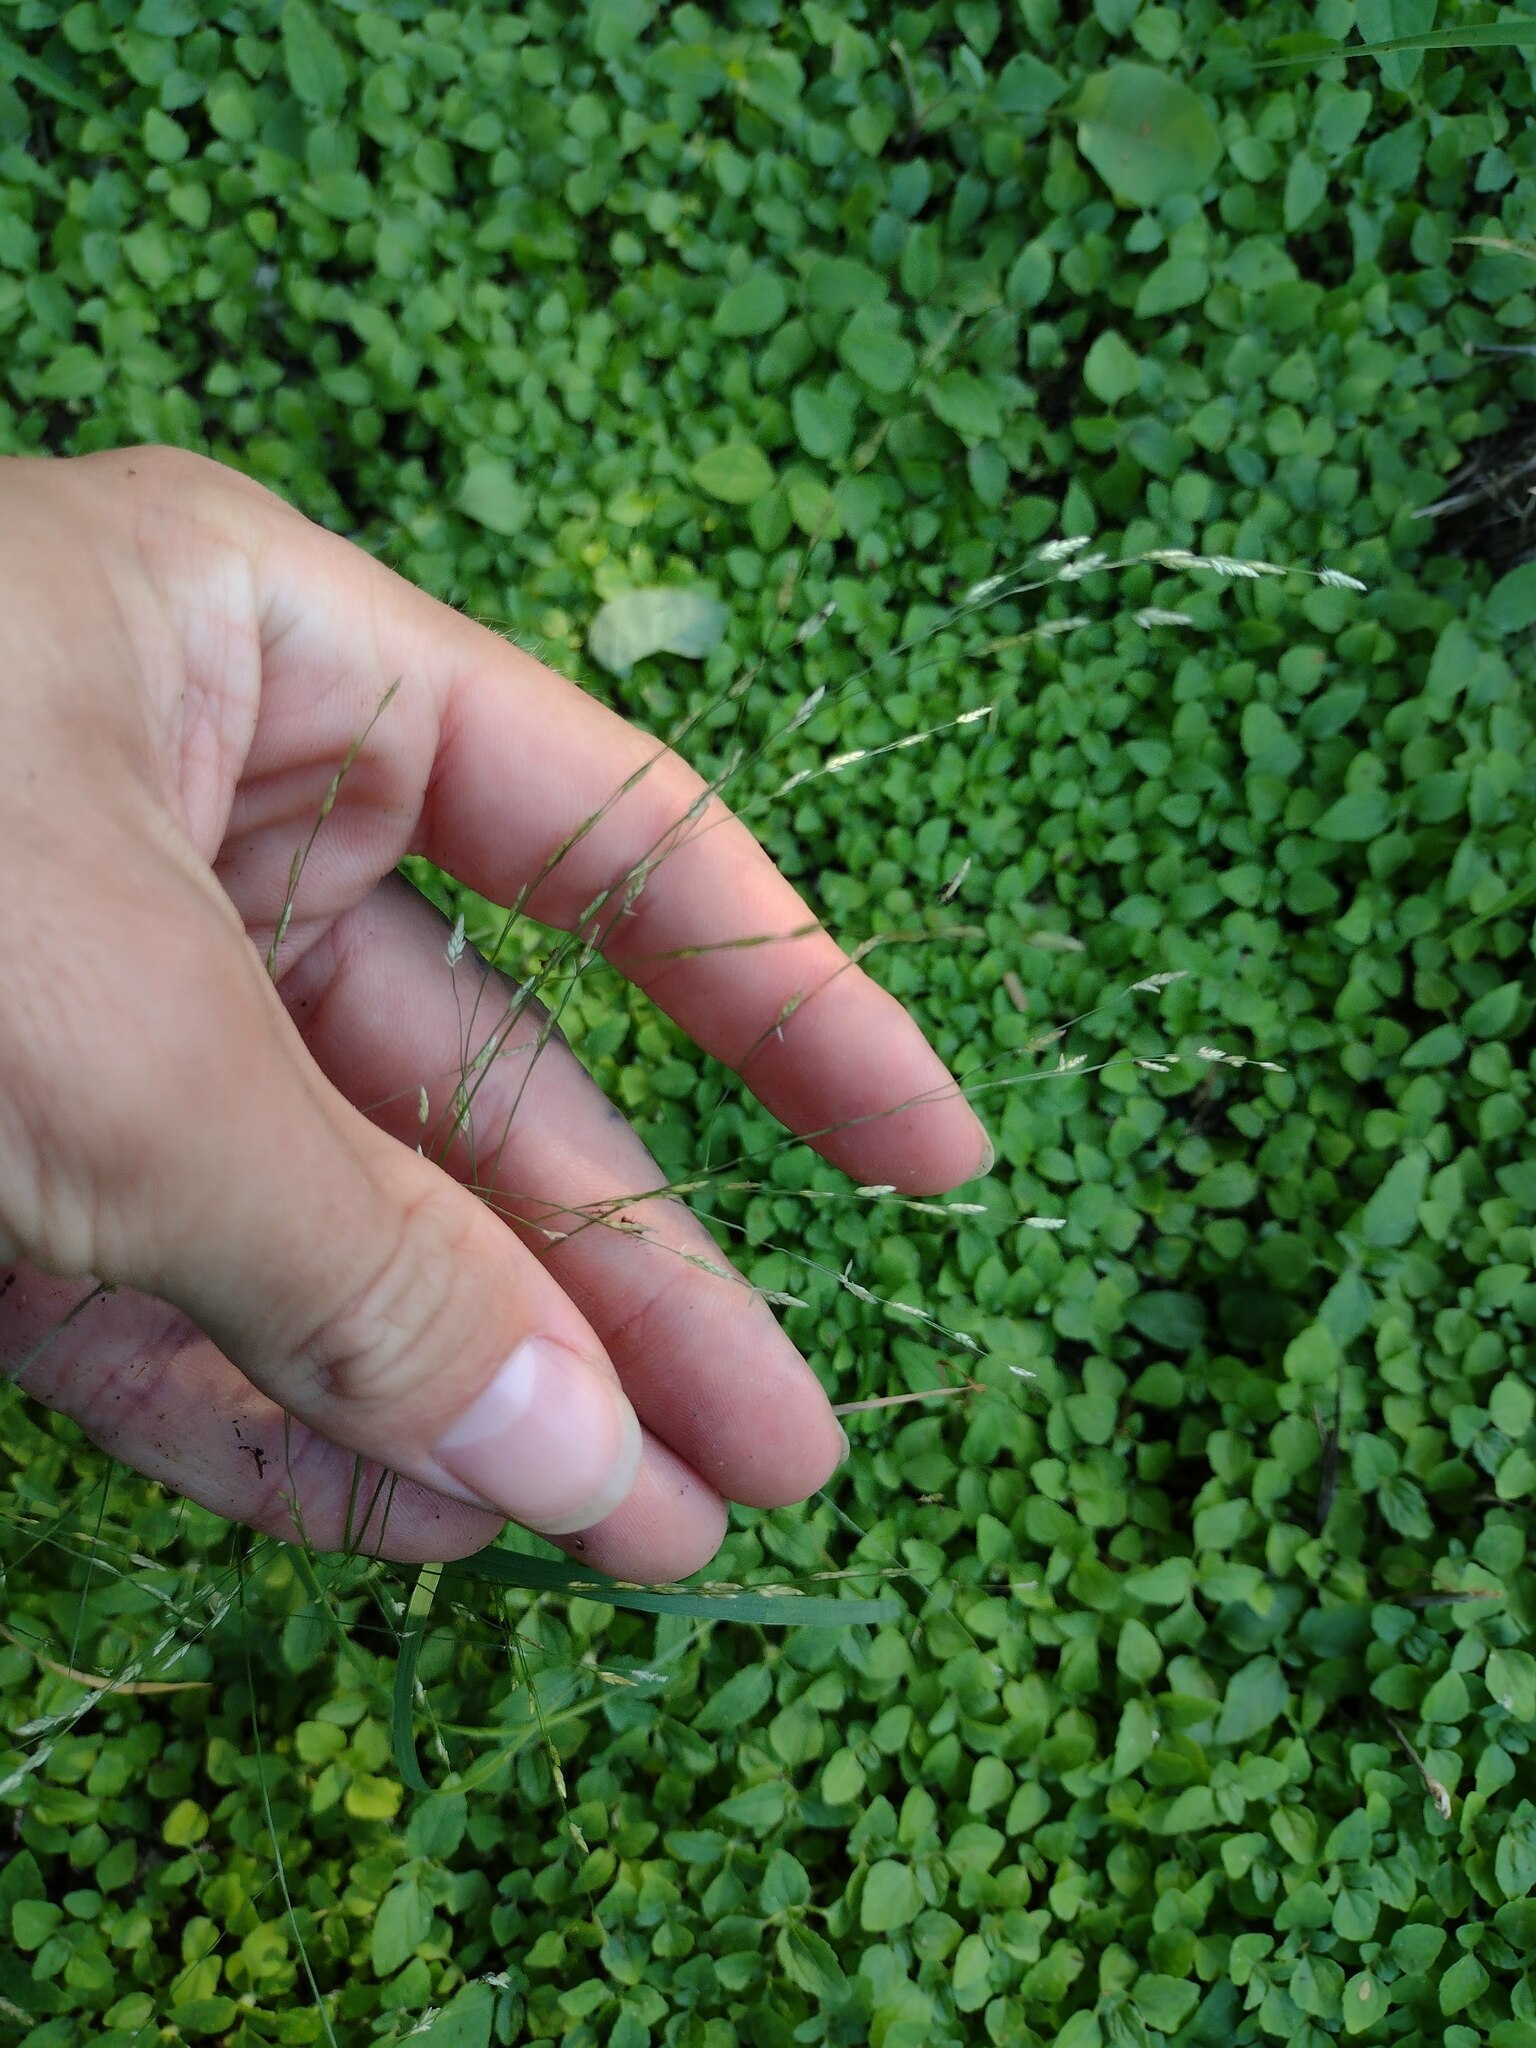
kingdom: Plantae
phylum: Tracheophyta
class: Liliopsida
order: Poales
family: Poaceae
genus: Eragrostis
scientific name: Eragrostis pectinacea
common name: Tufted lovegrass
